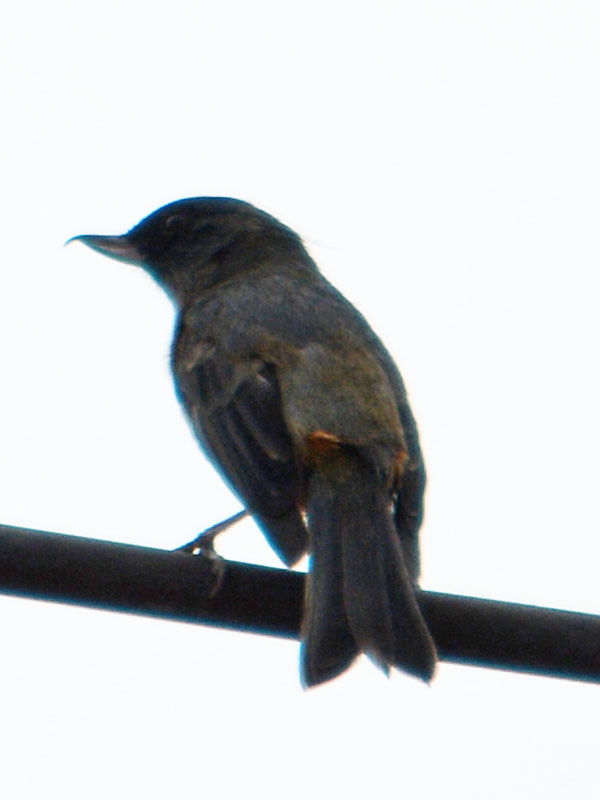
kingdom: Animalia
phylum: Chordata
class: Aves
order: Passeriformes
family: Thraupidae
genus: Diglossa
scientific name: Diglossa baritula
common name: Cinnamon-bellied flowerpiercer
